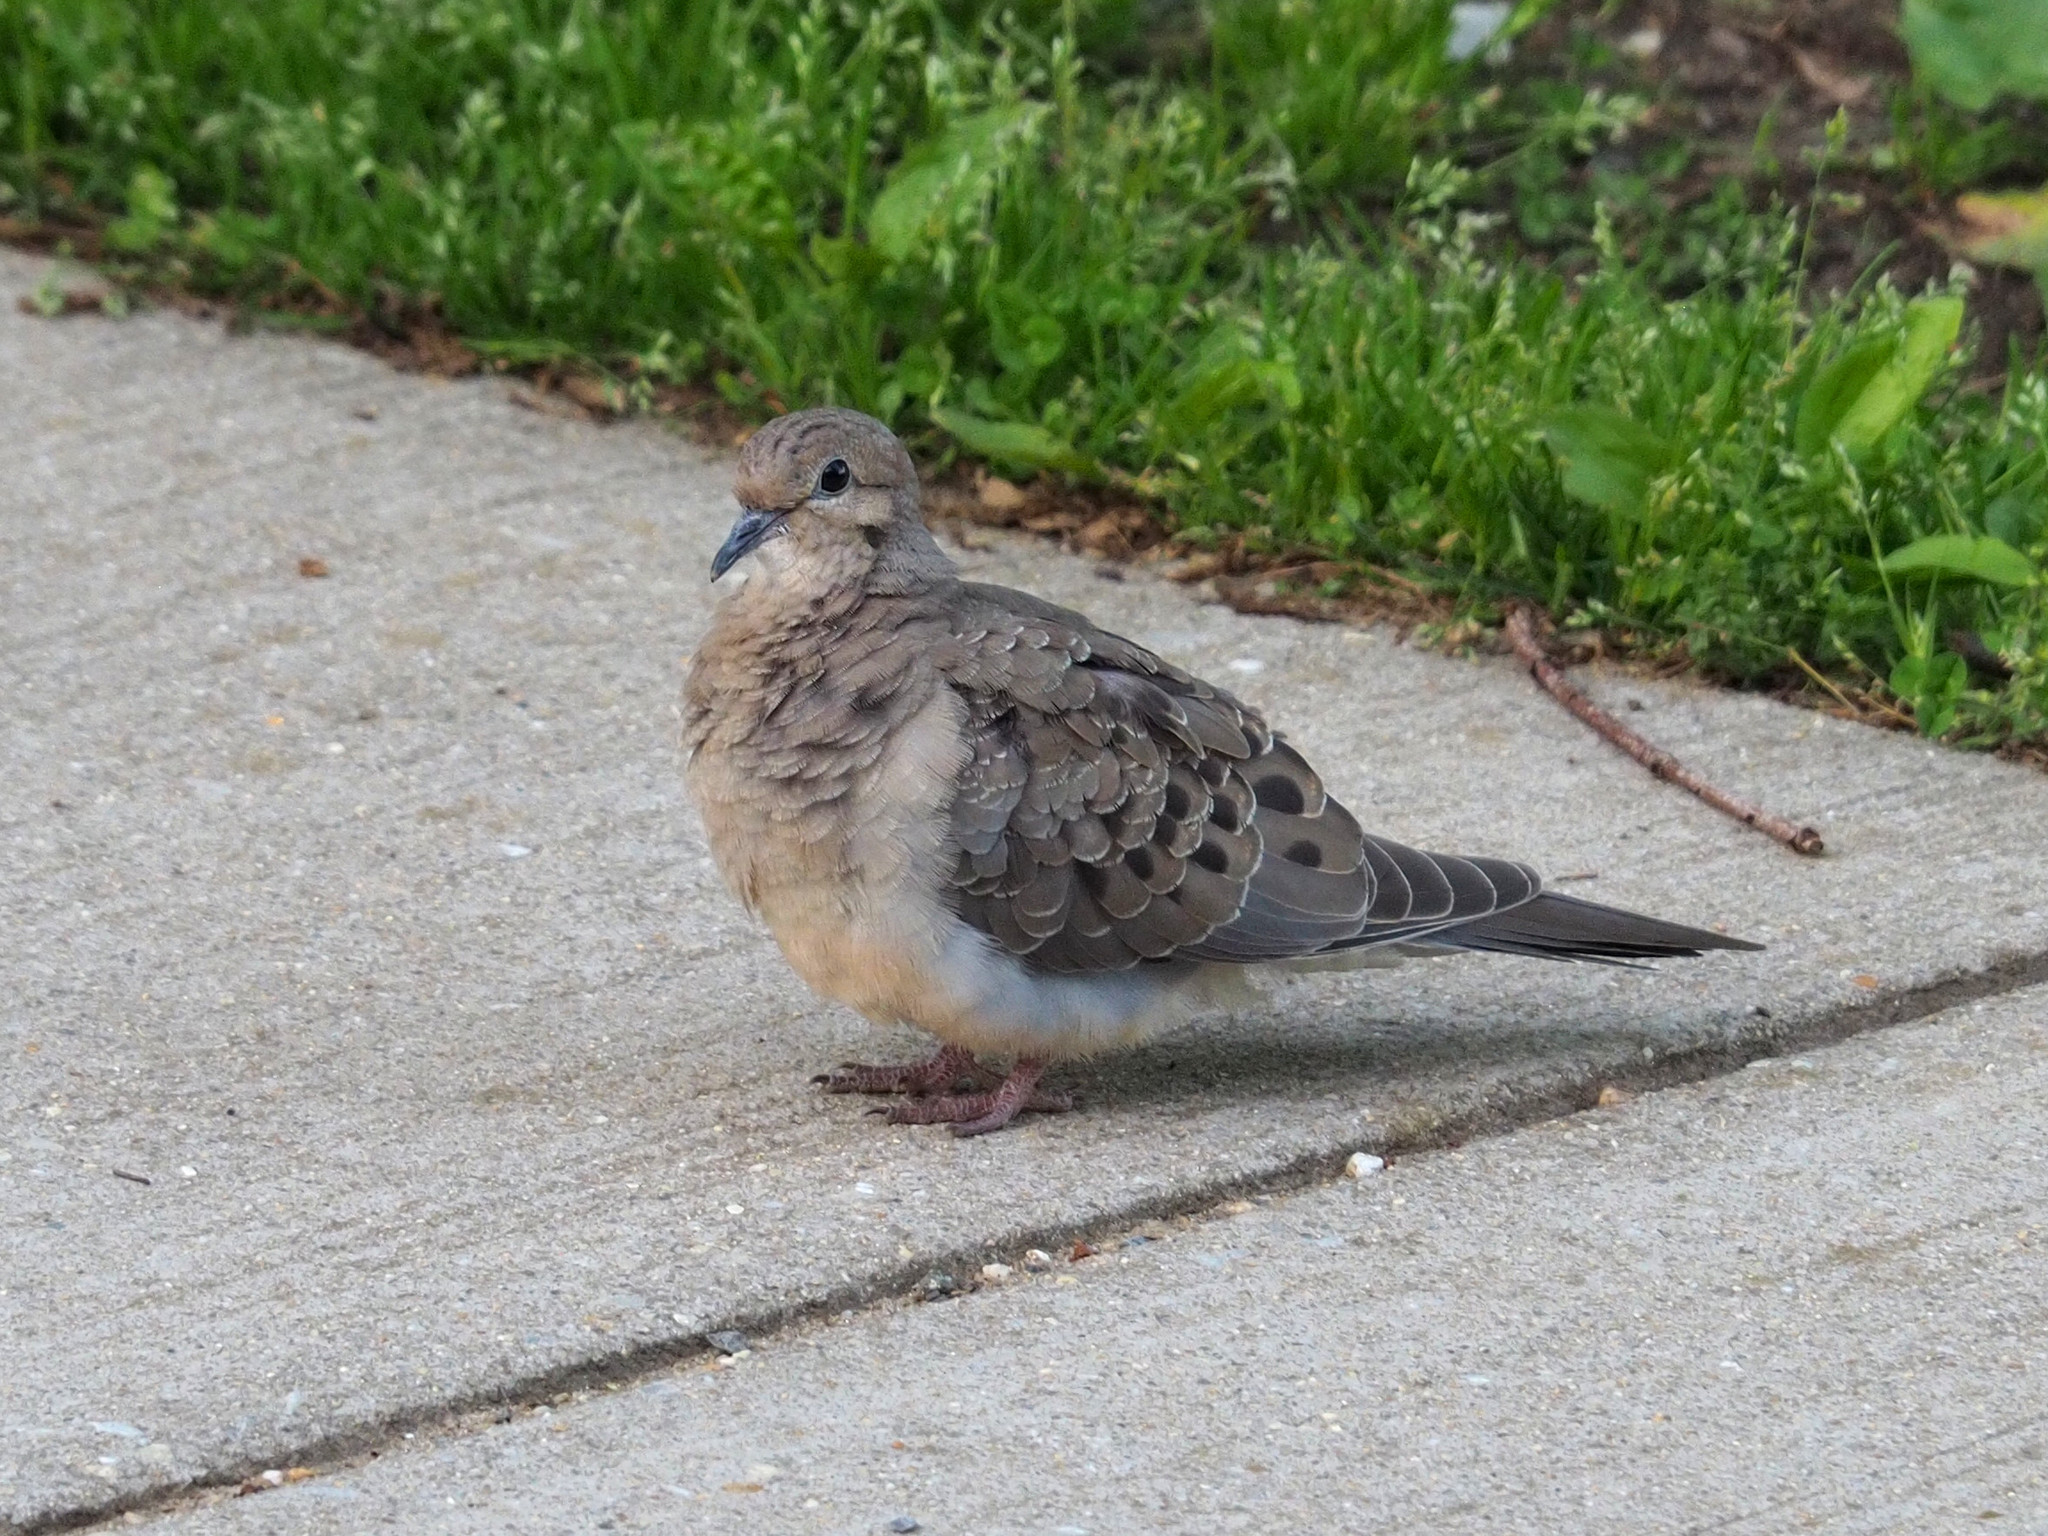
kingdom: Animalia
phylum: Chordata
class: Aves
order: Columbiformes
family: Columbidae
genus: Zenaida
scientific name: Zenaida macroura
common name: Mourning dove
